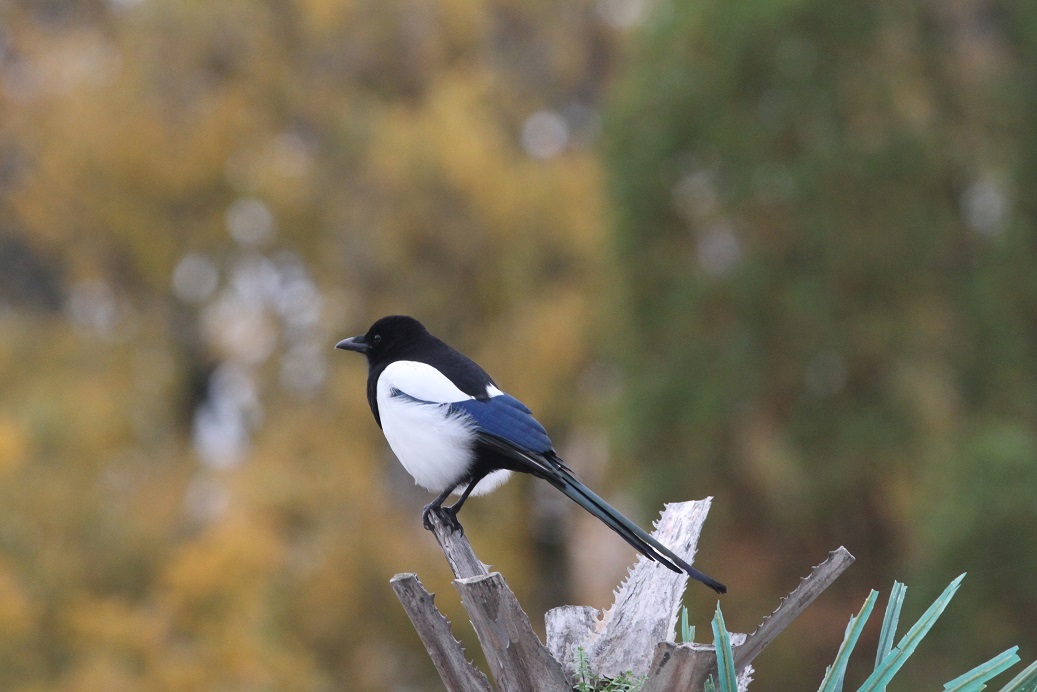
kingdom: Animalia
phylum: Chordata
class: Aves
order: Passeriformes
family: Corvidae
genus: Pica
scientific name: Pica pica
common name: Eurasian magpie
